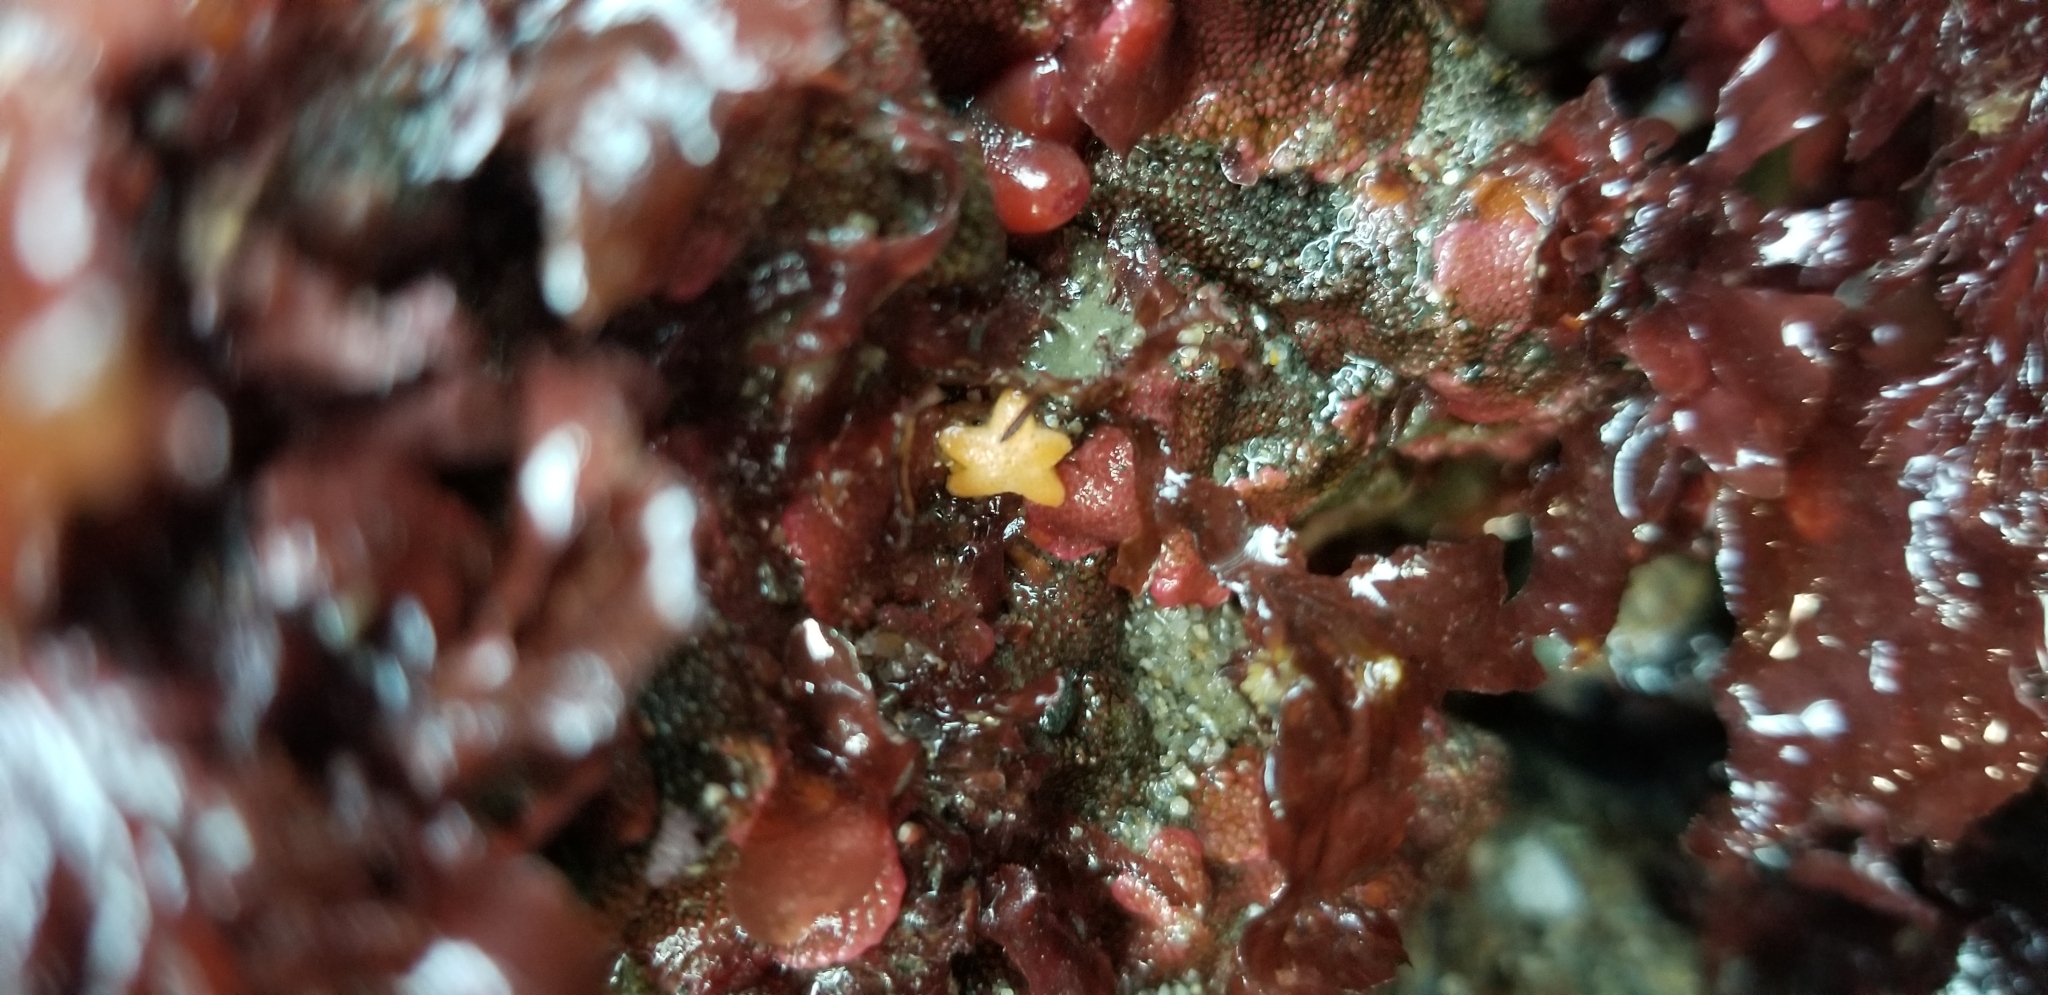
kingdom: Animalia
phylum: Echinodermata
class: Asteroidea
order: Spinulosida
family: Echinasteridae
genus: Henricia
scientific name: Henricia pumila
